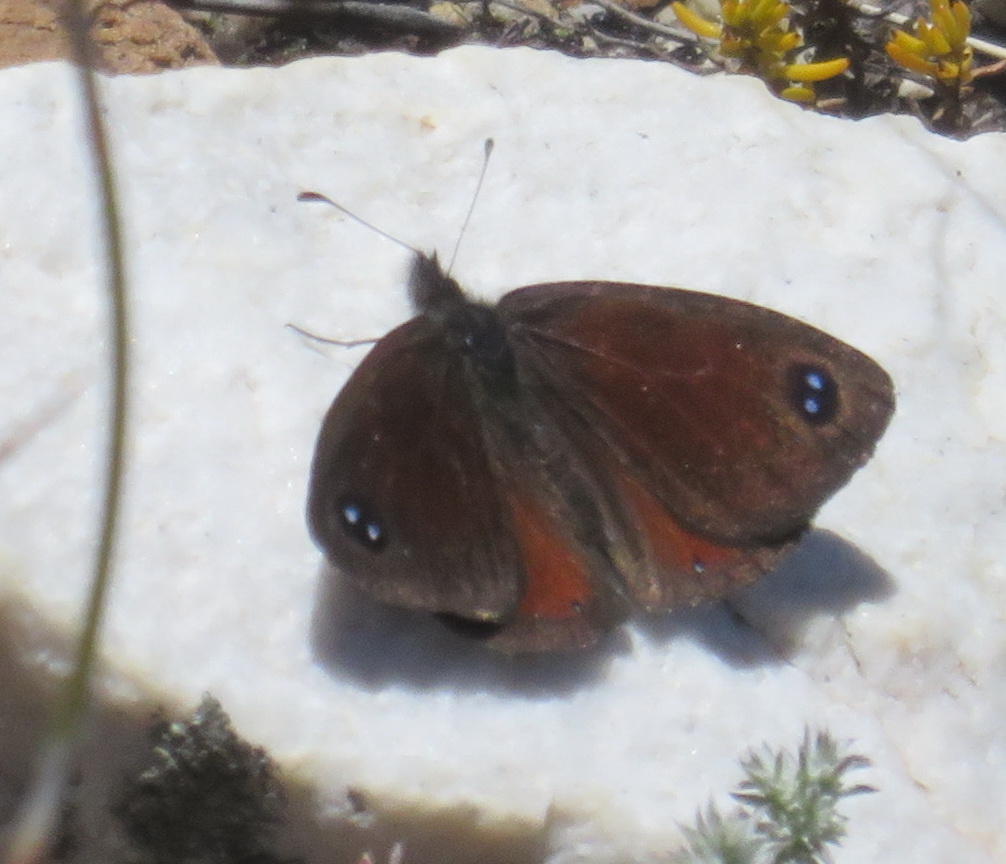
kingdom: Animalia
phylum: Arthropoda
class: Insecta
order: Lepidoptera
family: Nymphalidae
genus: Pseudonympha
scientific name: Pseudonympha hippia
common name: Table mountain brown
